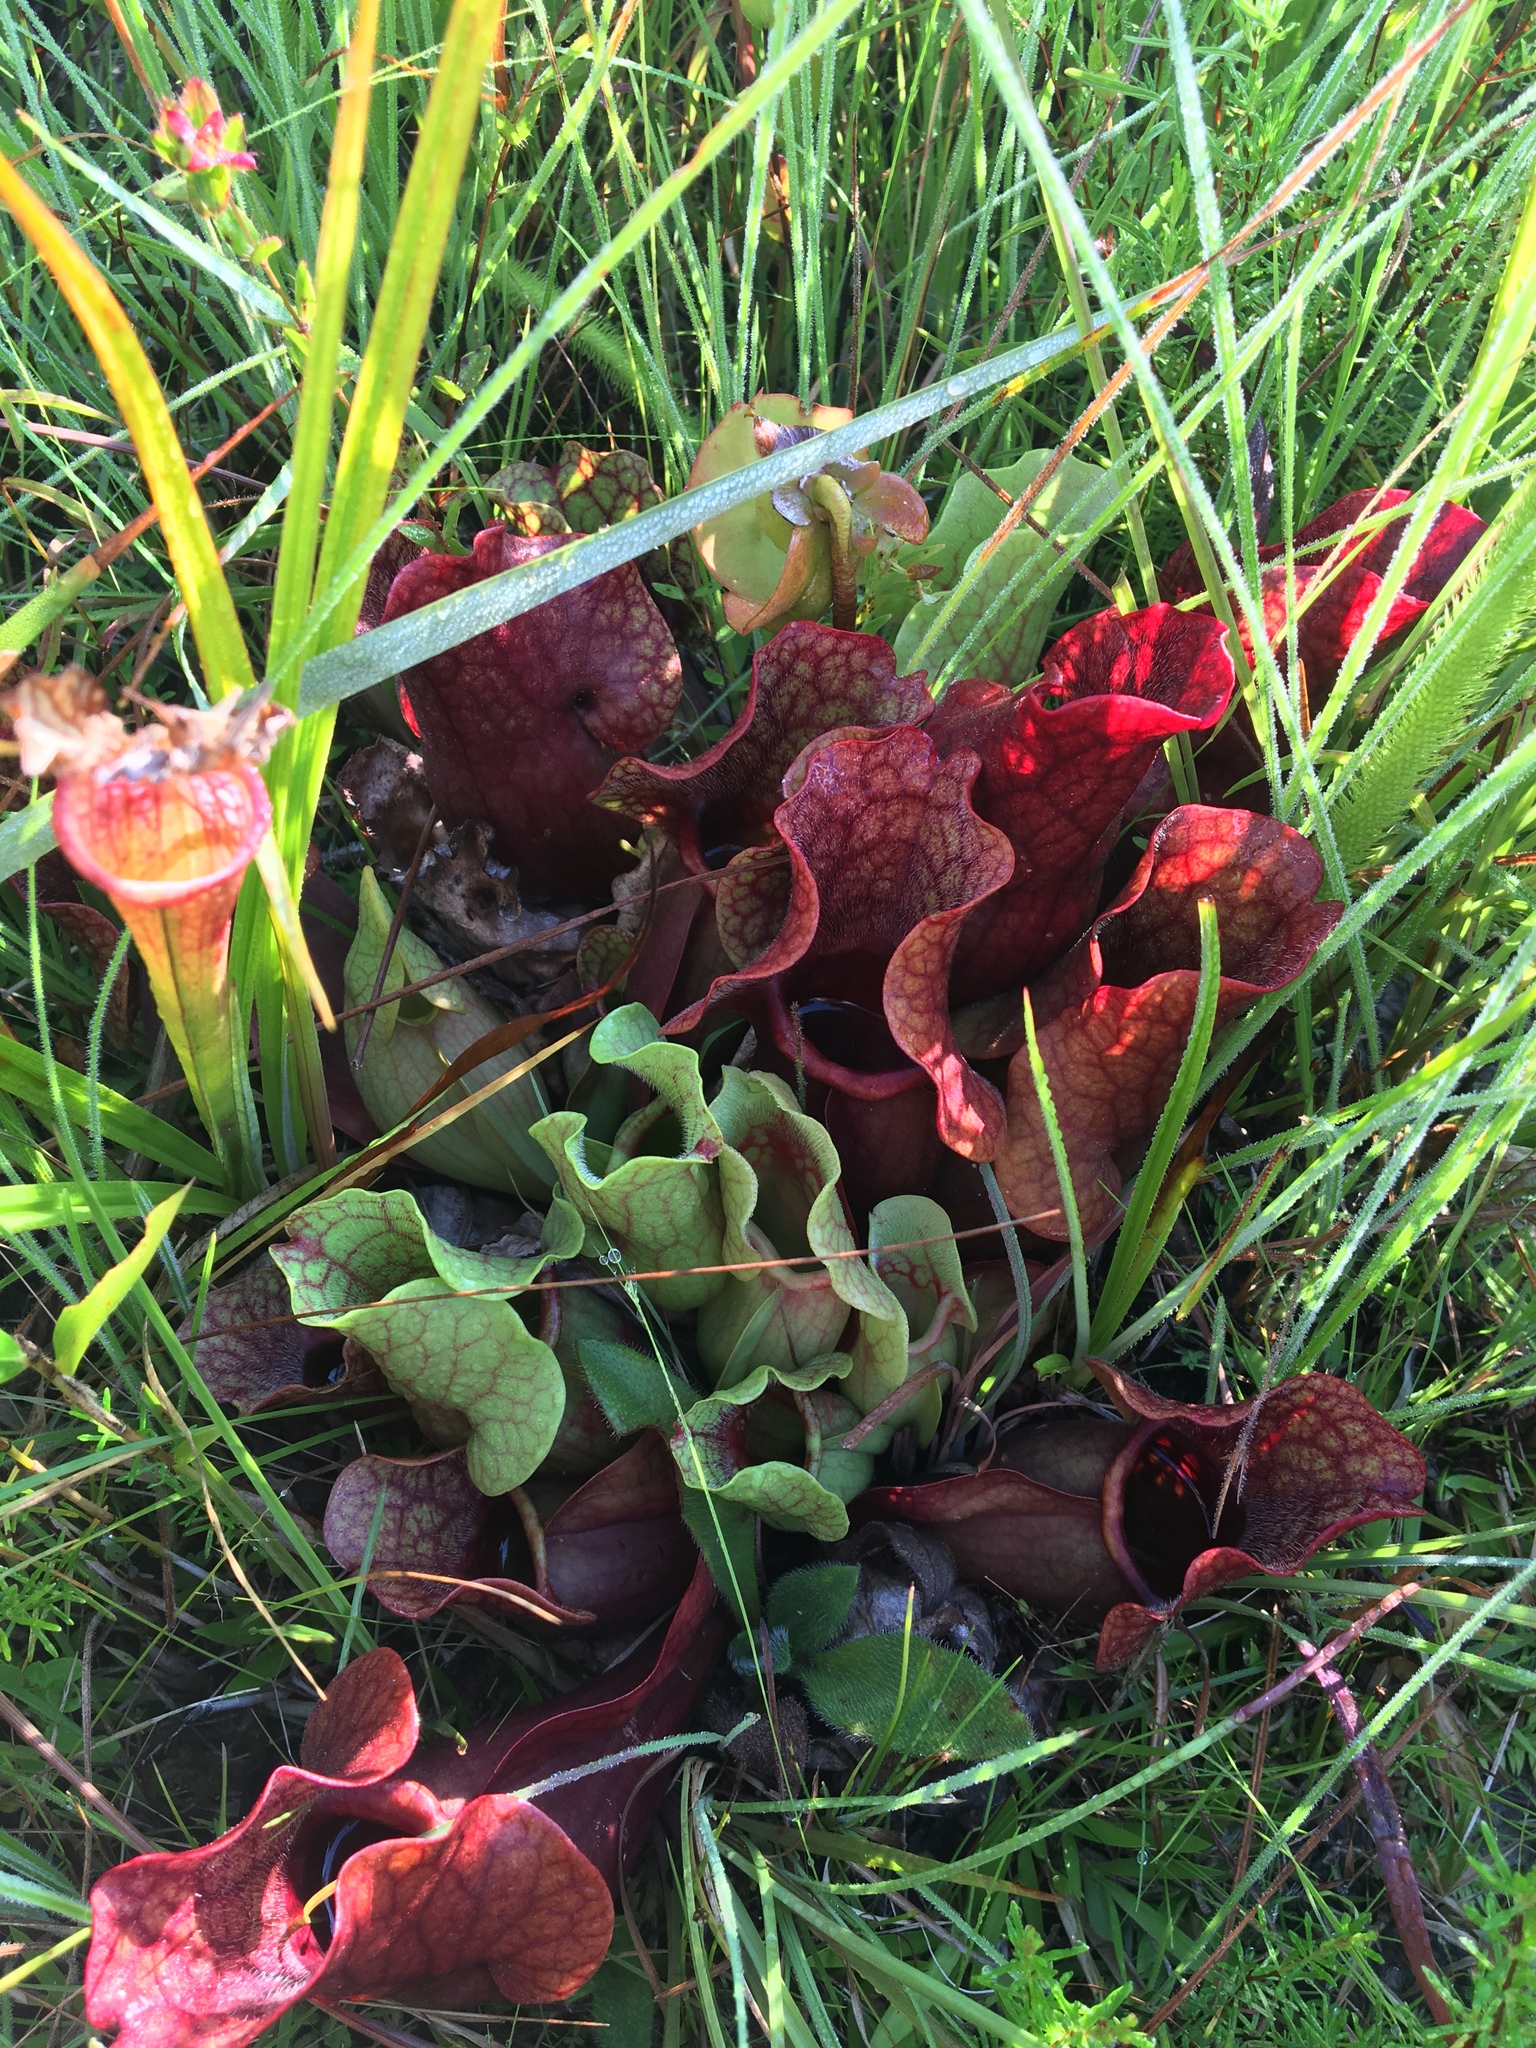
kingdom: Plantae
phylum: Tracheophyta
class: Magnoliopsida
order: Ericales
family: Sarraceniaceae
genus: Sarracenia
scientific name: Sarracenia rosea
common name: Pink pitcherplant
